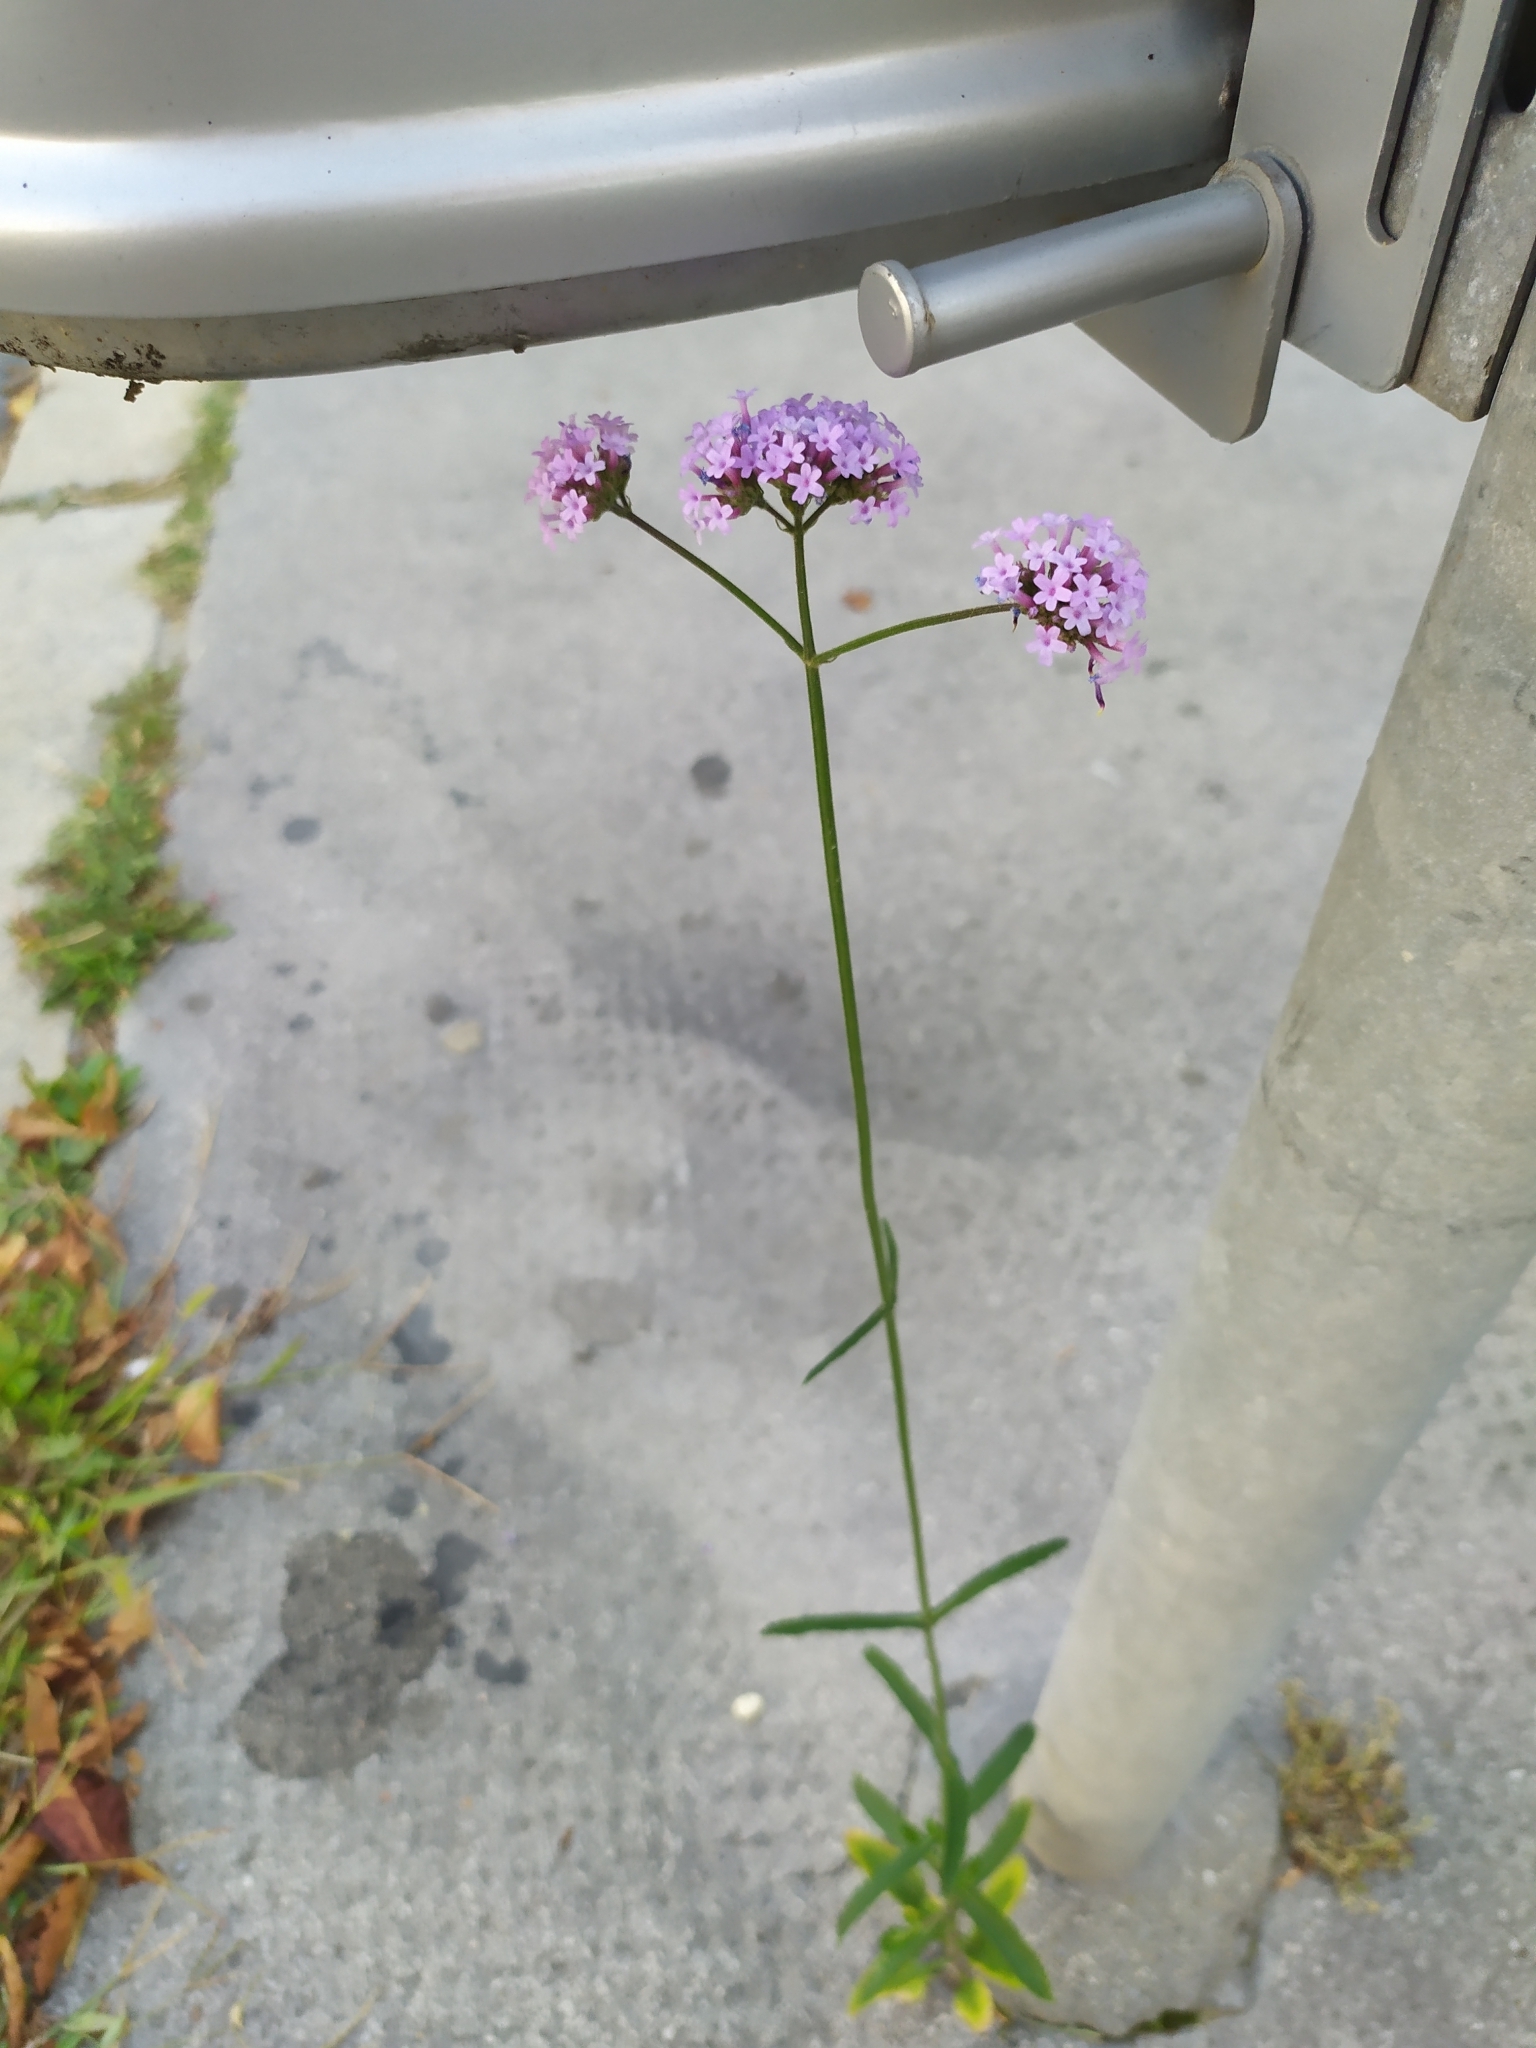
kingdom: Plantae
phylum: Tracheophyta
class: Magnoliopsida
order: Lamiales
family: Verbenaceae
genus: Verbena
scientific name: Verbena bonariensis
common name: Purpletop vervain
